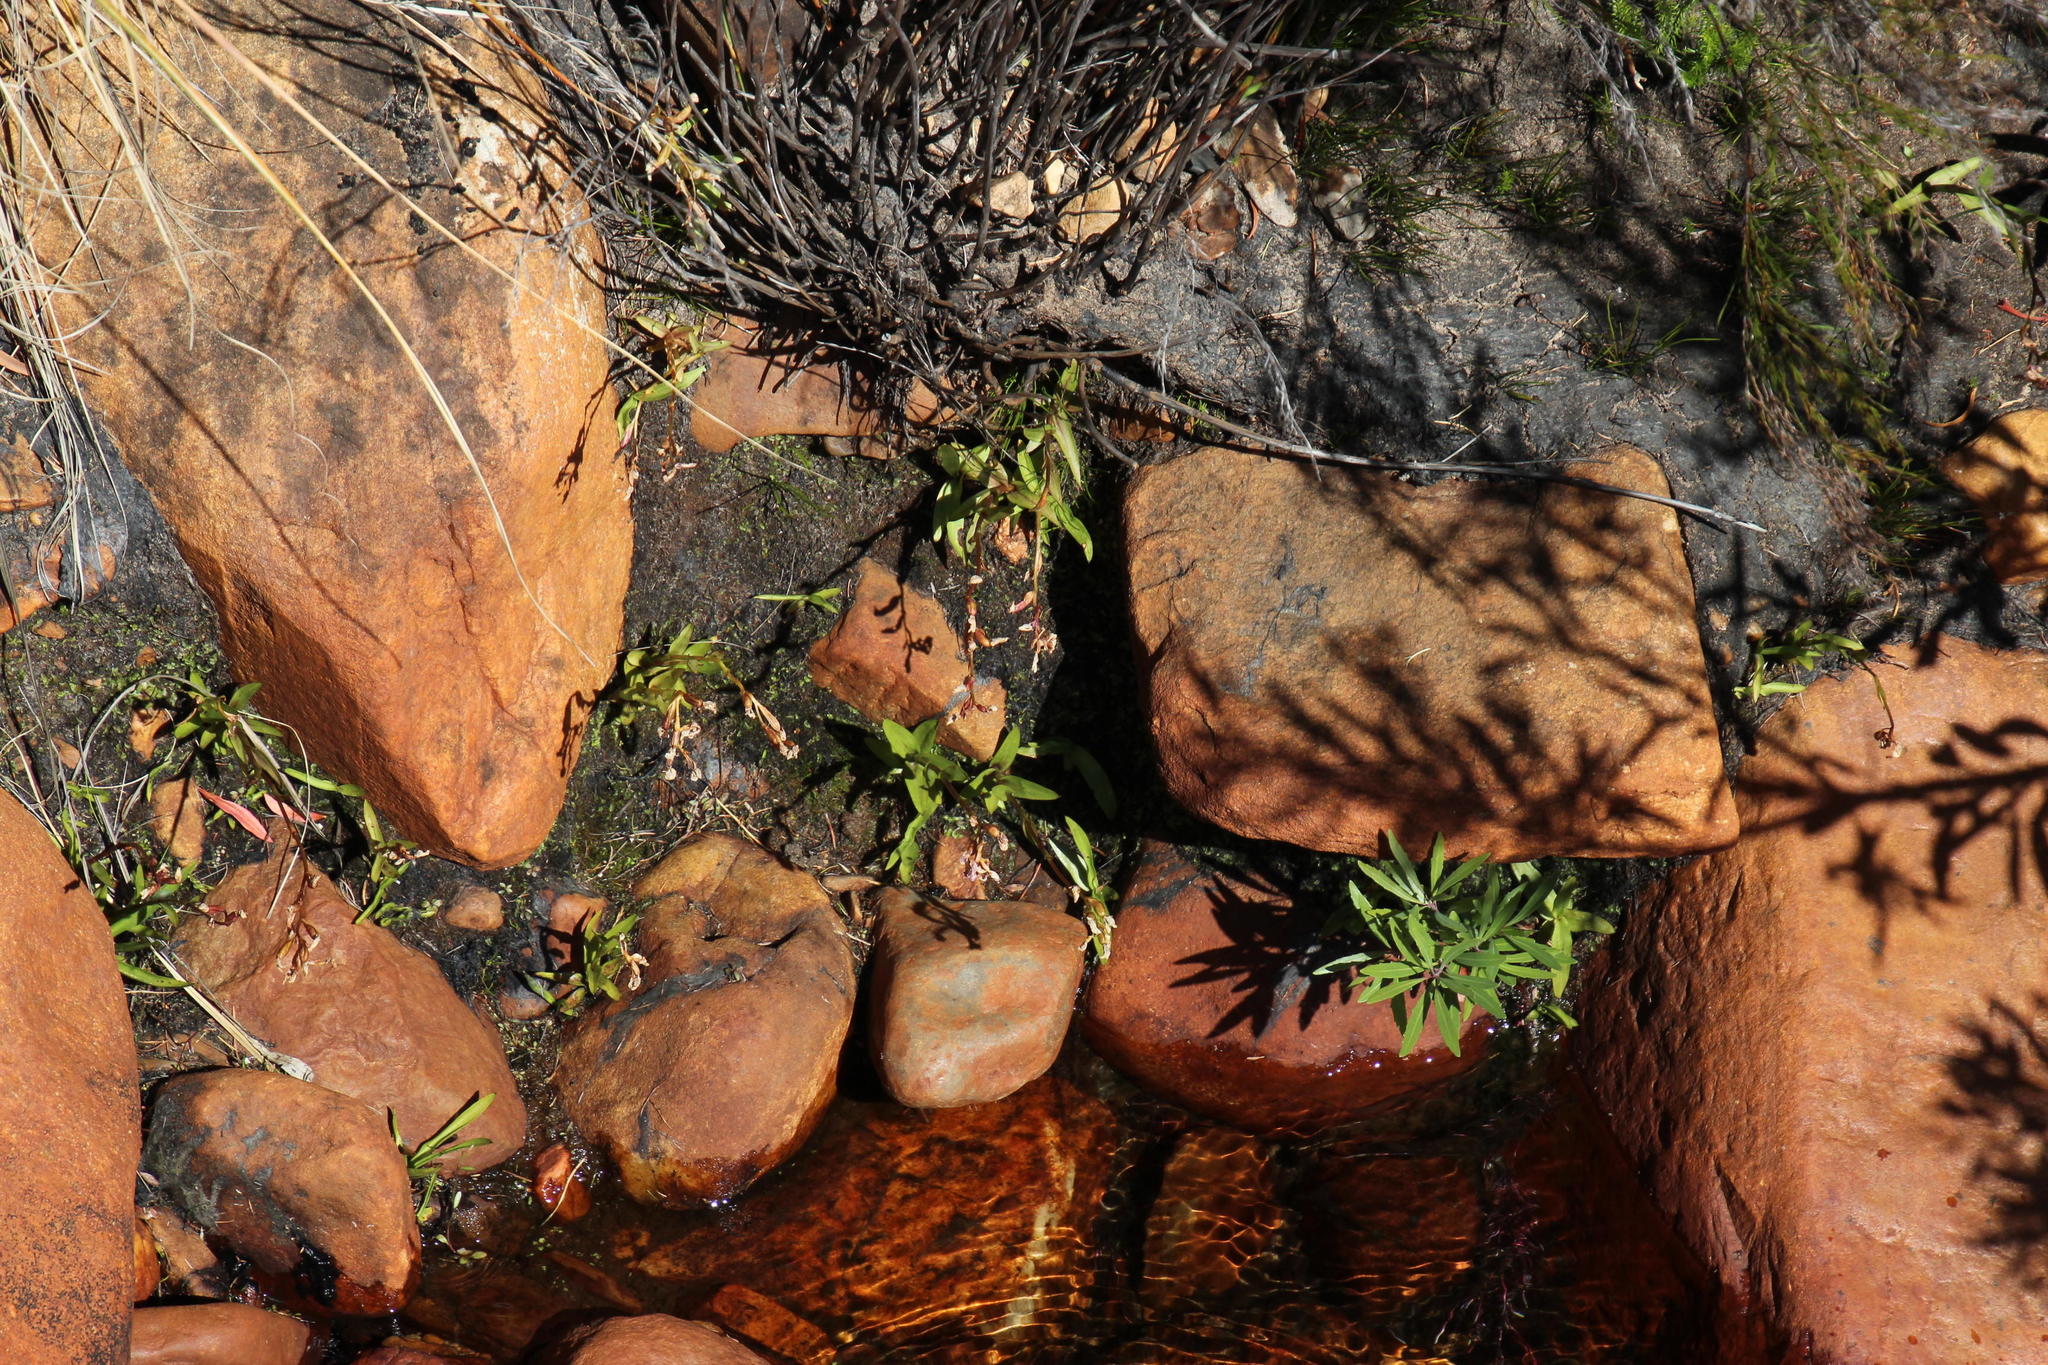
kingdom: Plantae
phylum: Tracheophyta
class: Liliopsida
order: Asparagales
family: Orchidaceae
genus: Disa
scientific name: Disa caulescens
